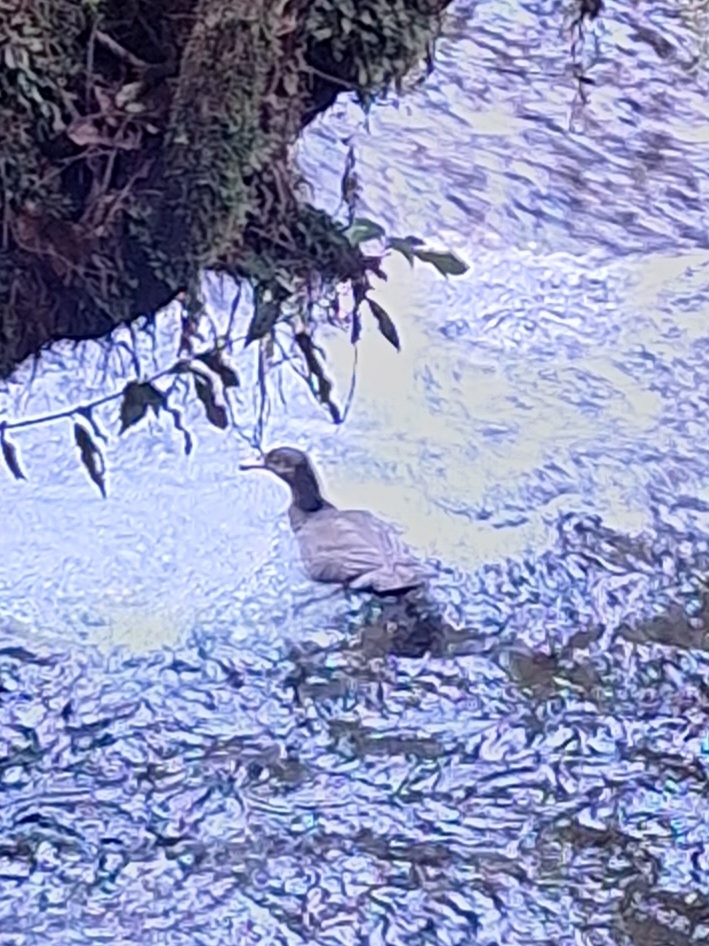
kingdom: Animalia
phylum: Chordata
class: Aves
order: Anseriformes
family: Anatidae
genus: Hymenolaimus
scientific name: Hymenolaimus malacorhynchos
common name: Blue duck
